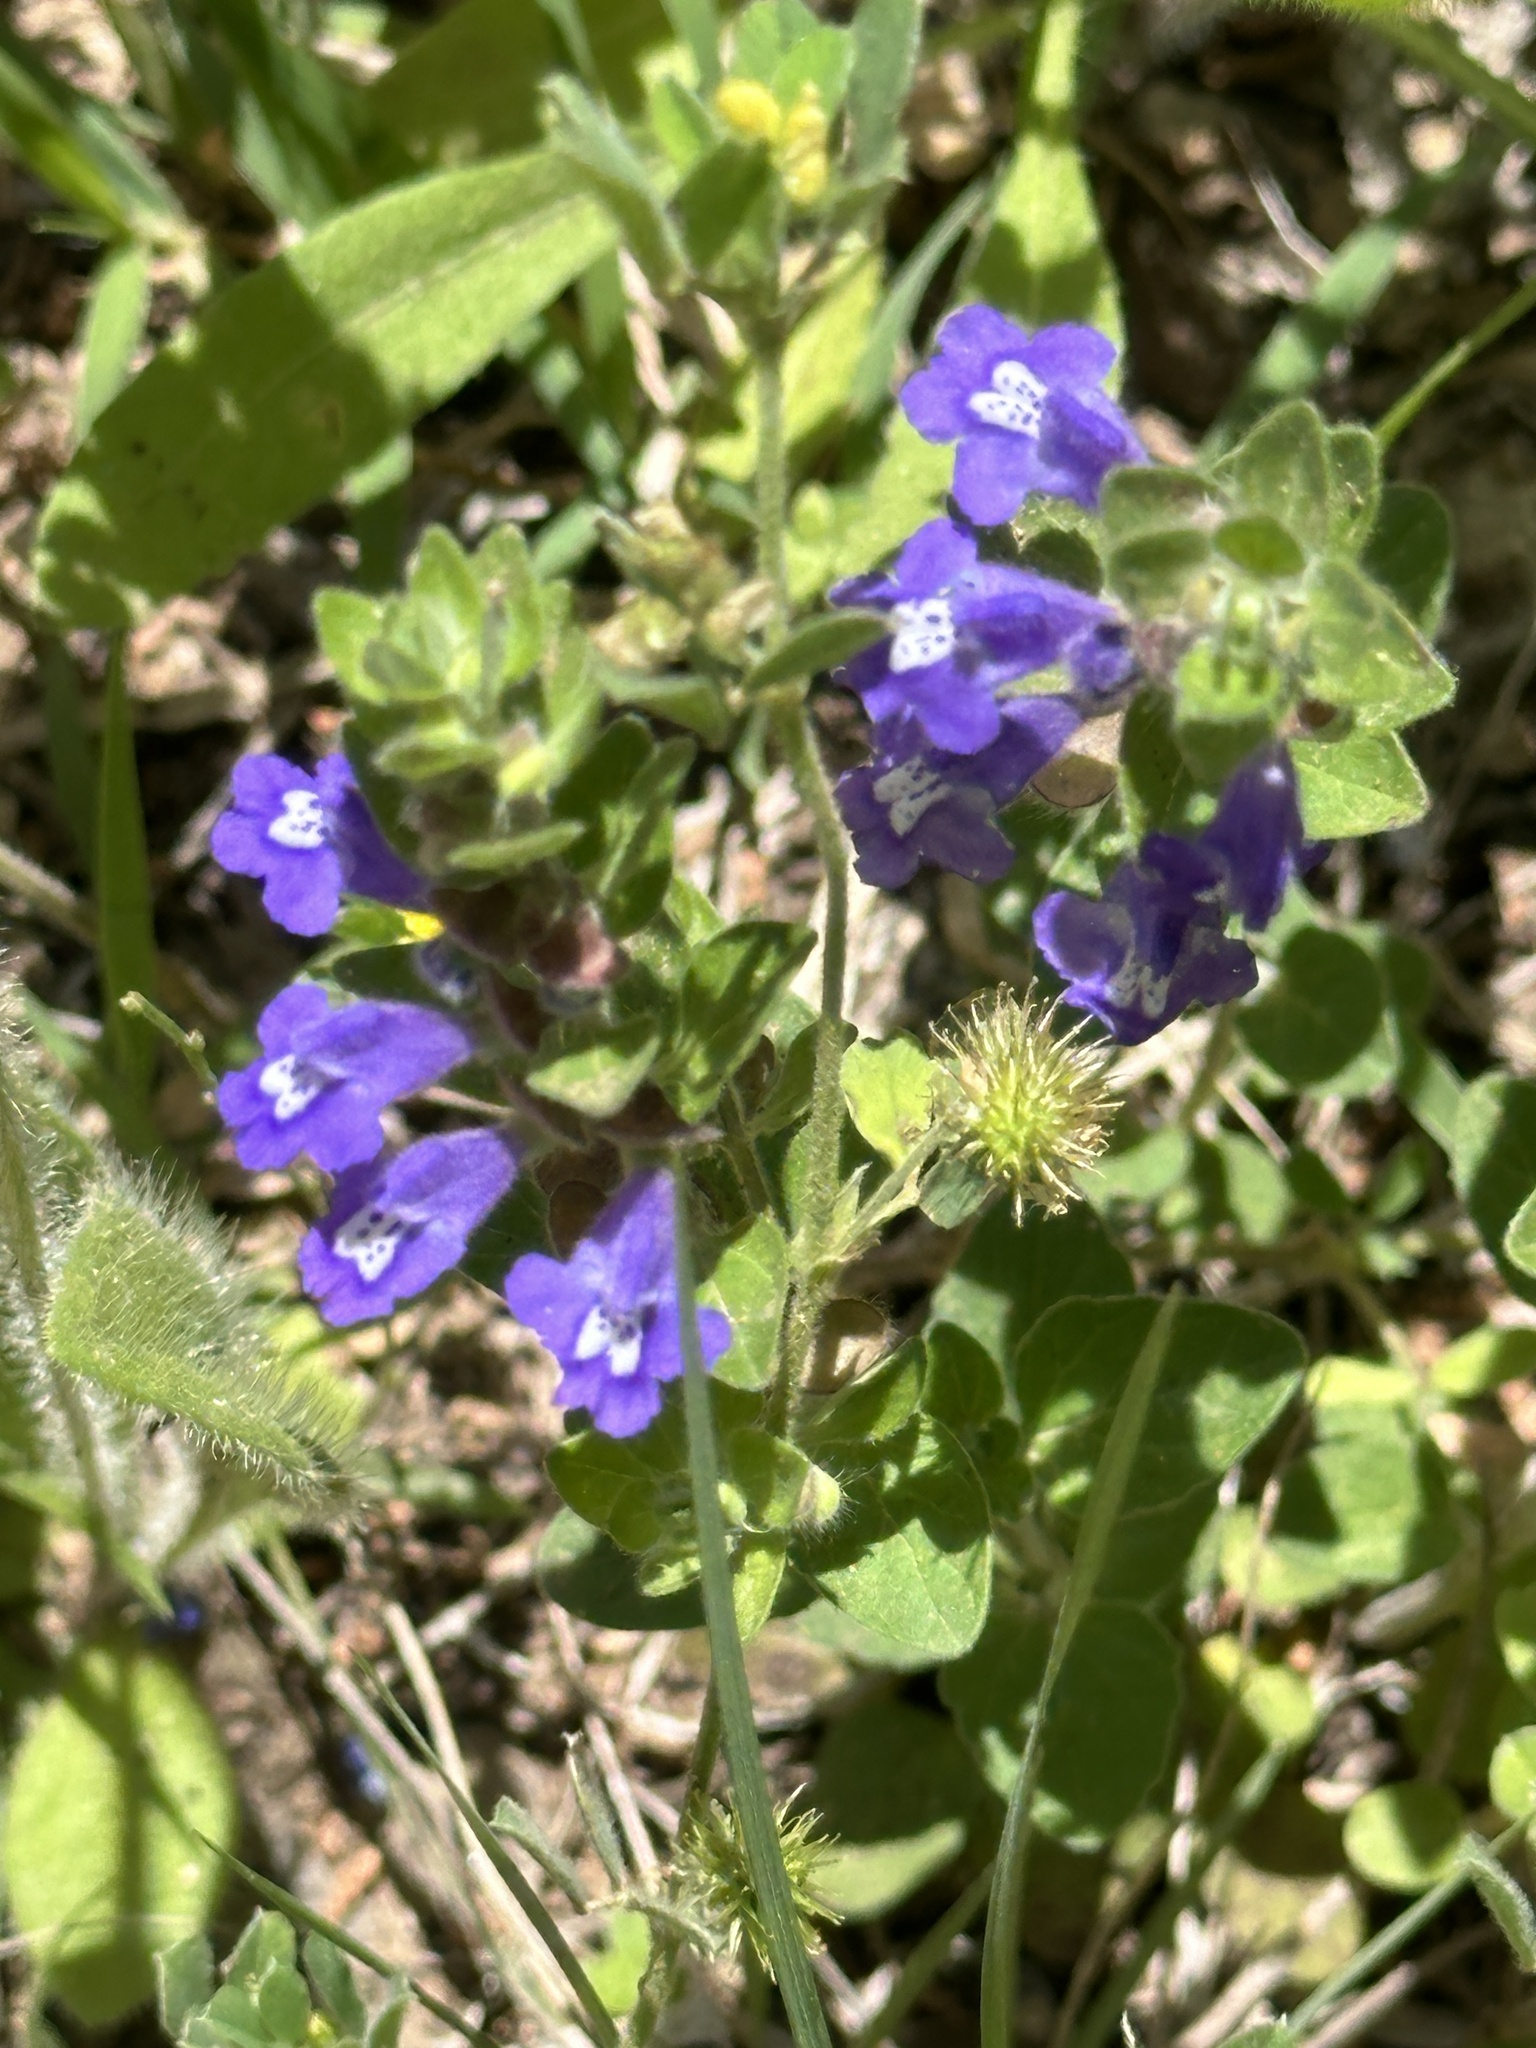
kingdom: Plantae
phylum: Tracheophyta
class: Magnoliopsida
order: Lamiales
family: Lamiaceae
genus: Scutellaria
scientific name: Scutellaria drummondii
